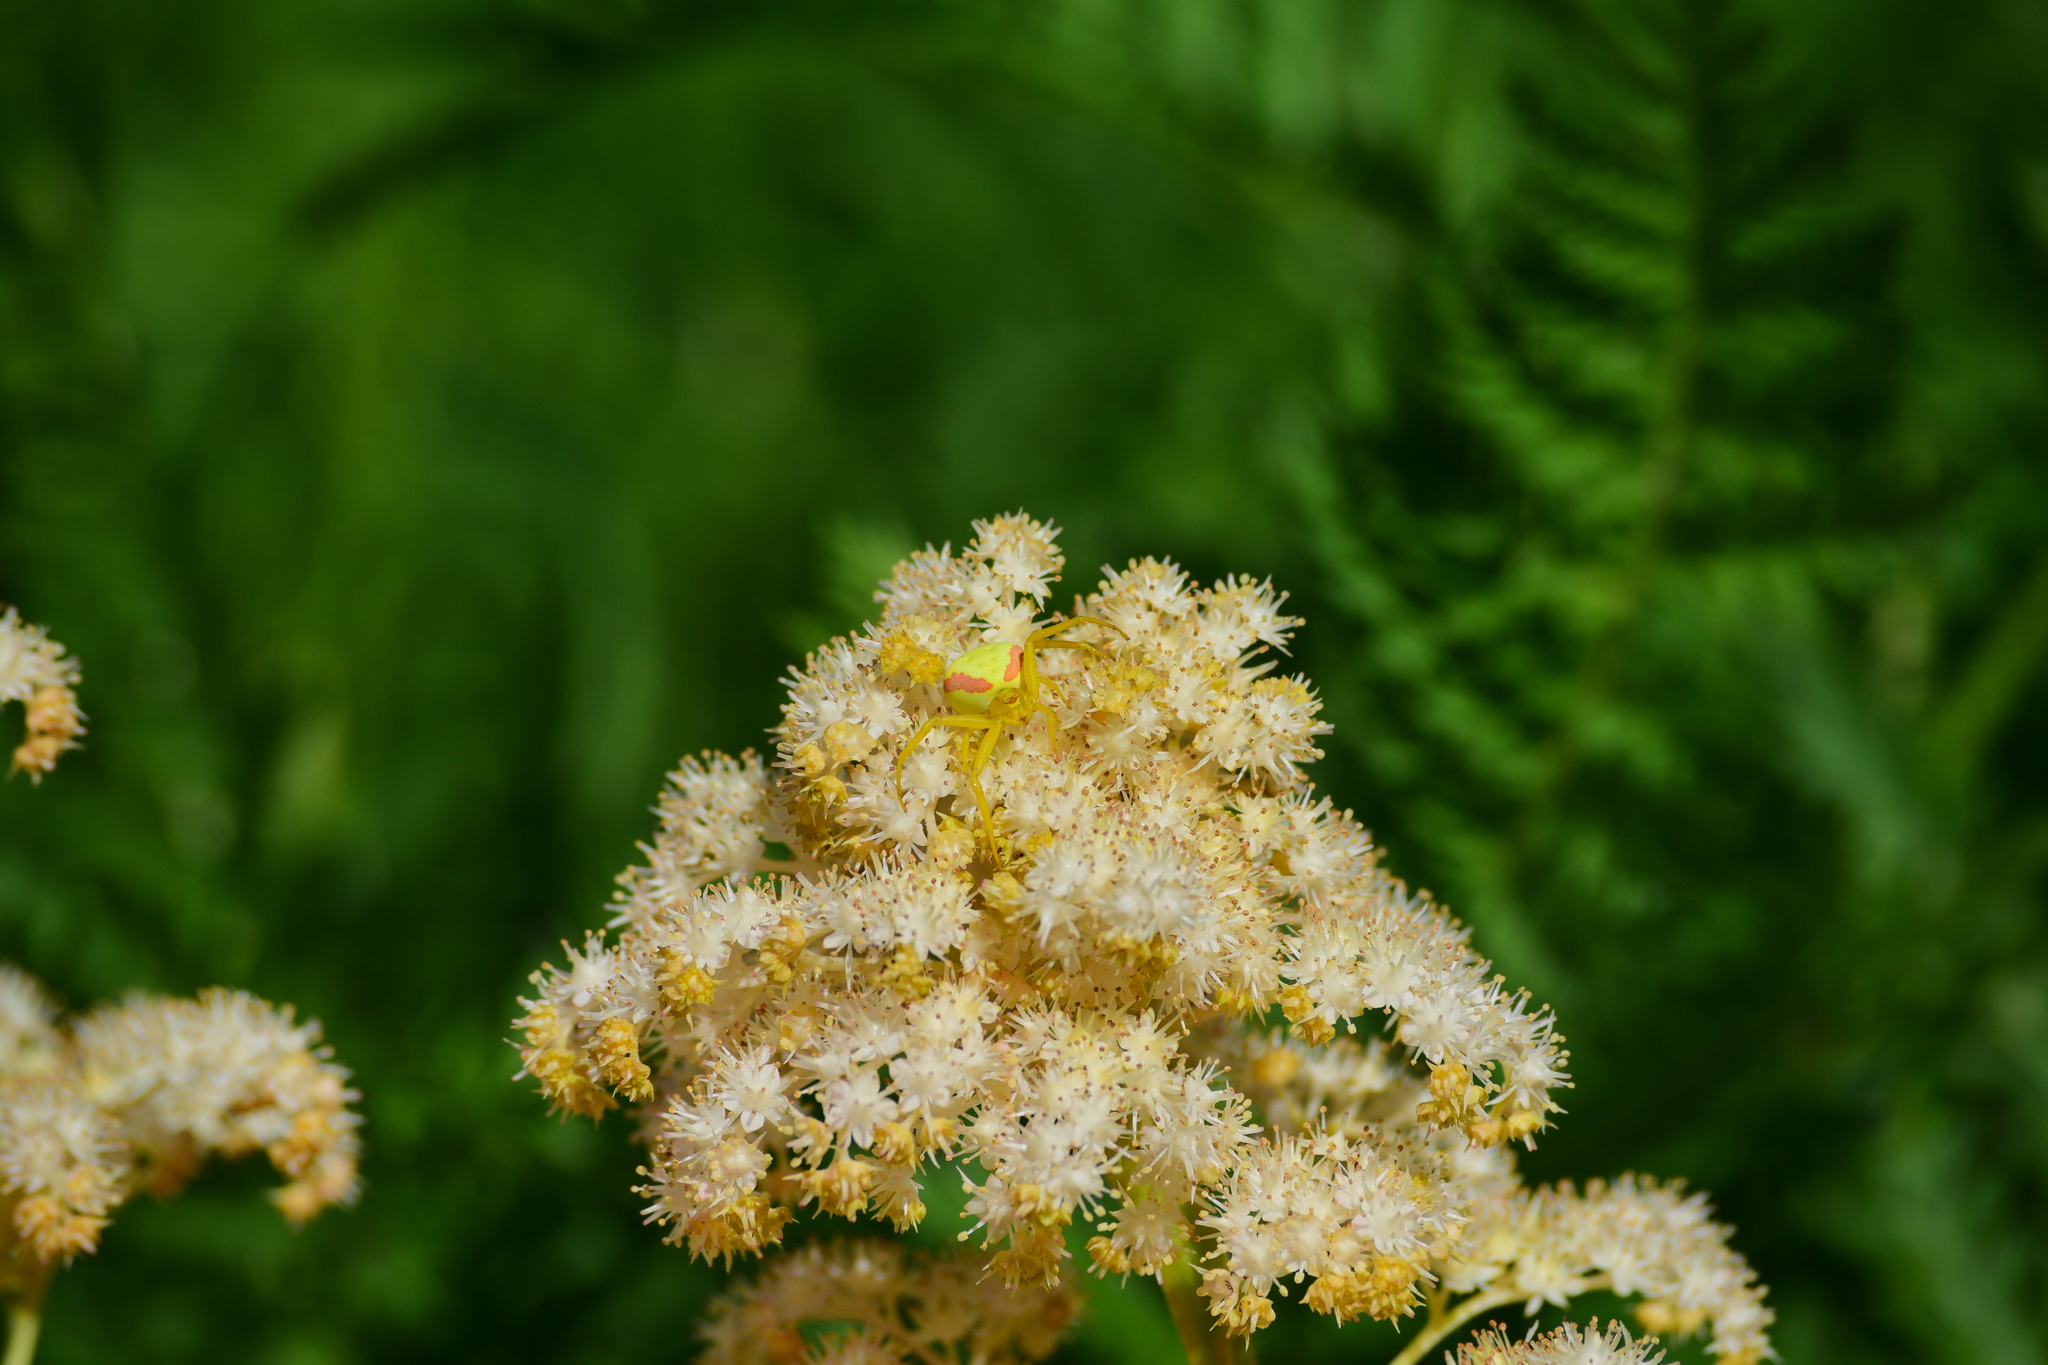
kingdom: Animalia
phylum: Arthropoda
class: Arachnida
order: Araneae
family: Thomisidae
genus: Misumena
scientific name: Misumena vatia
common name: Goldenrod crab spider
